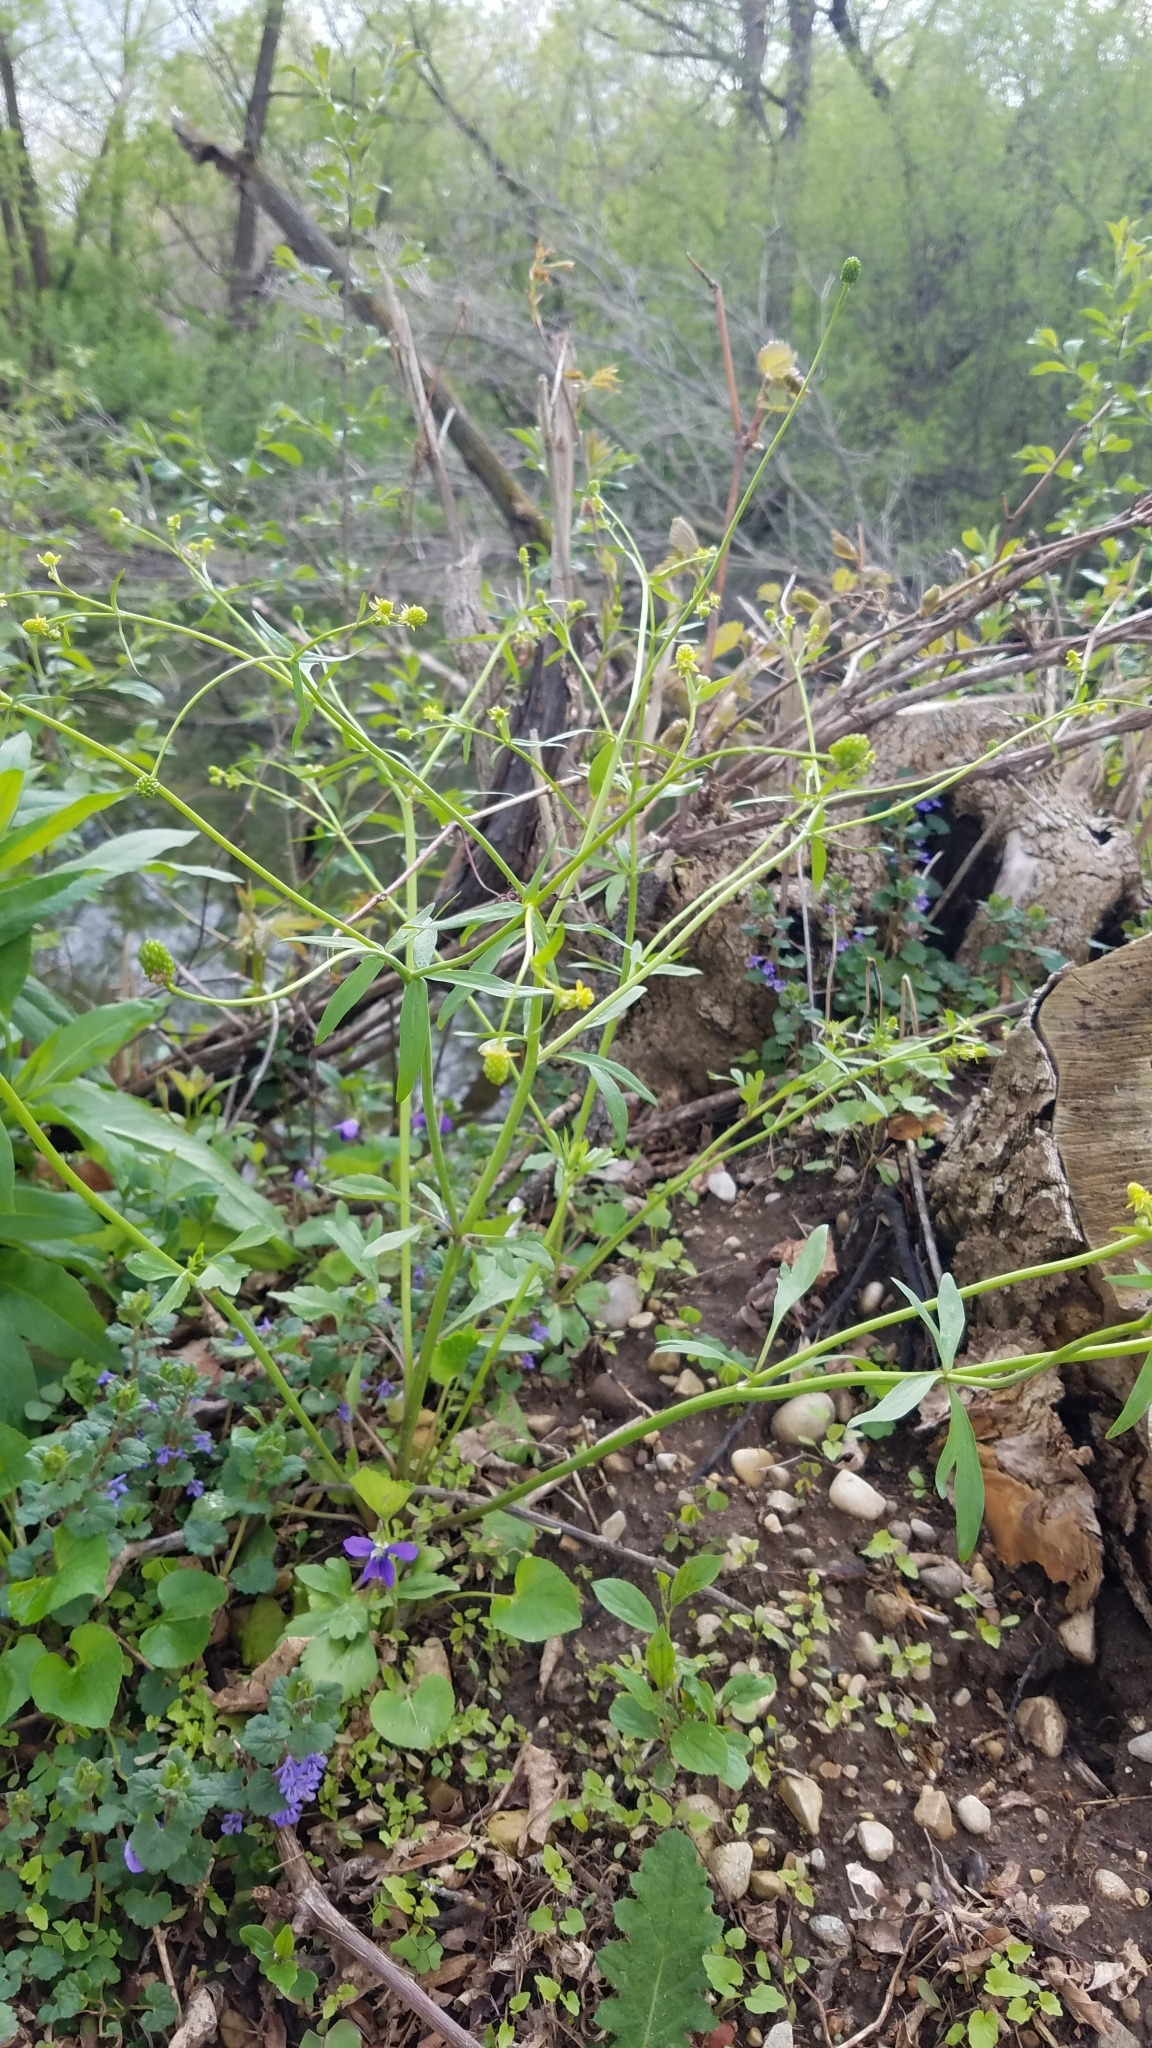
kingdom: Plantae
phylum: Tracheophyta
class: Magnoliopsida
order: Ranunculales
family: Ranunculaceae
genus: Ranunculus
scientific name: Ranunculus abortivus
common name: Early wood buttercup
